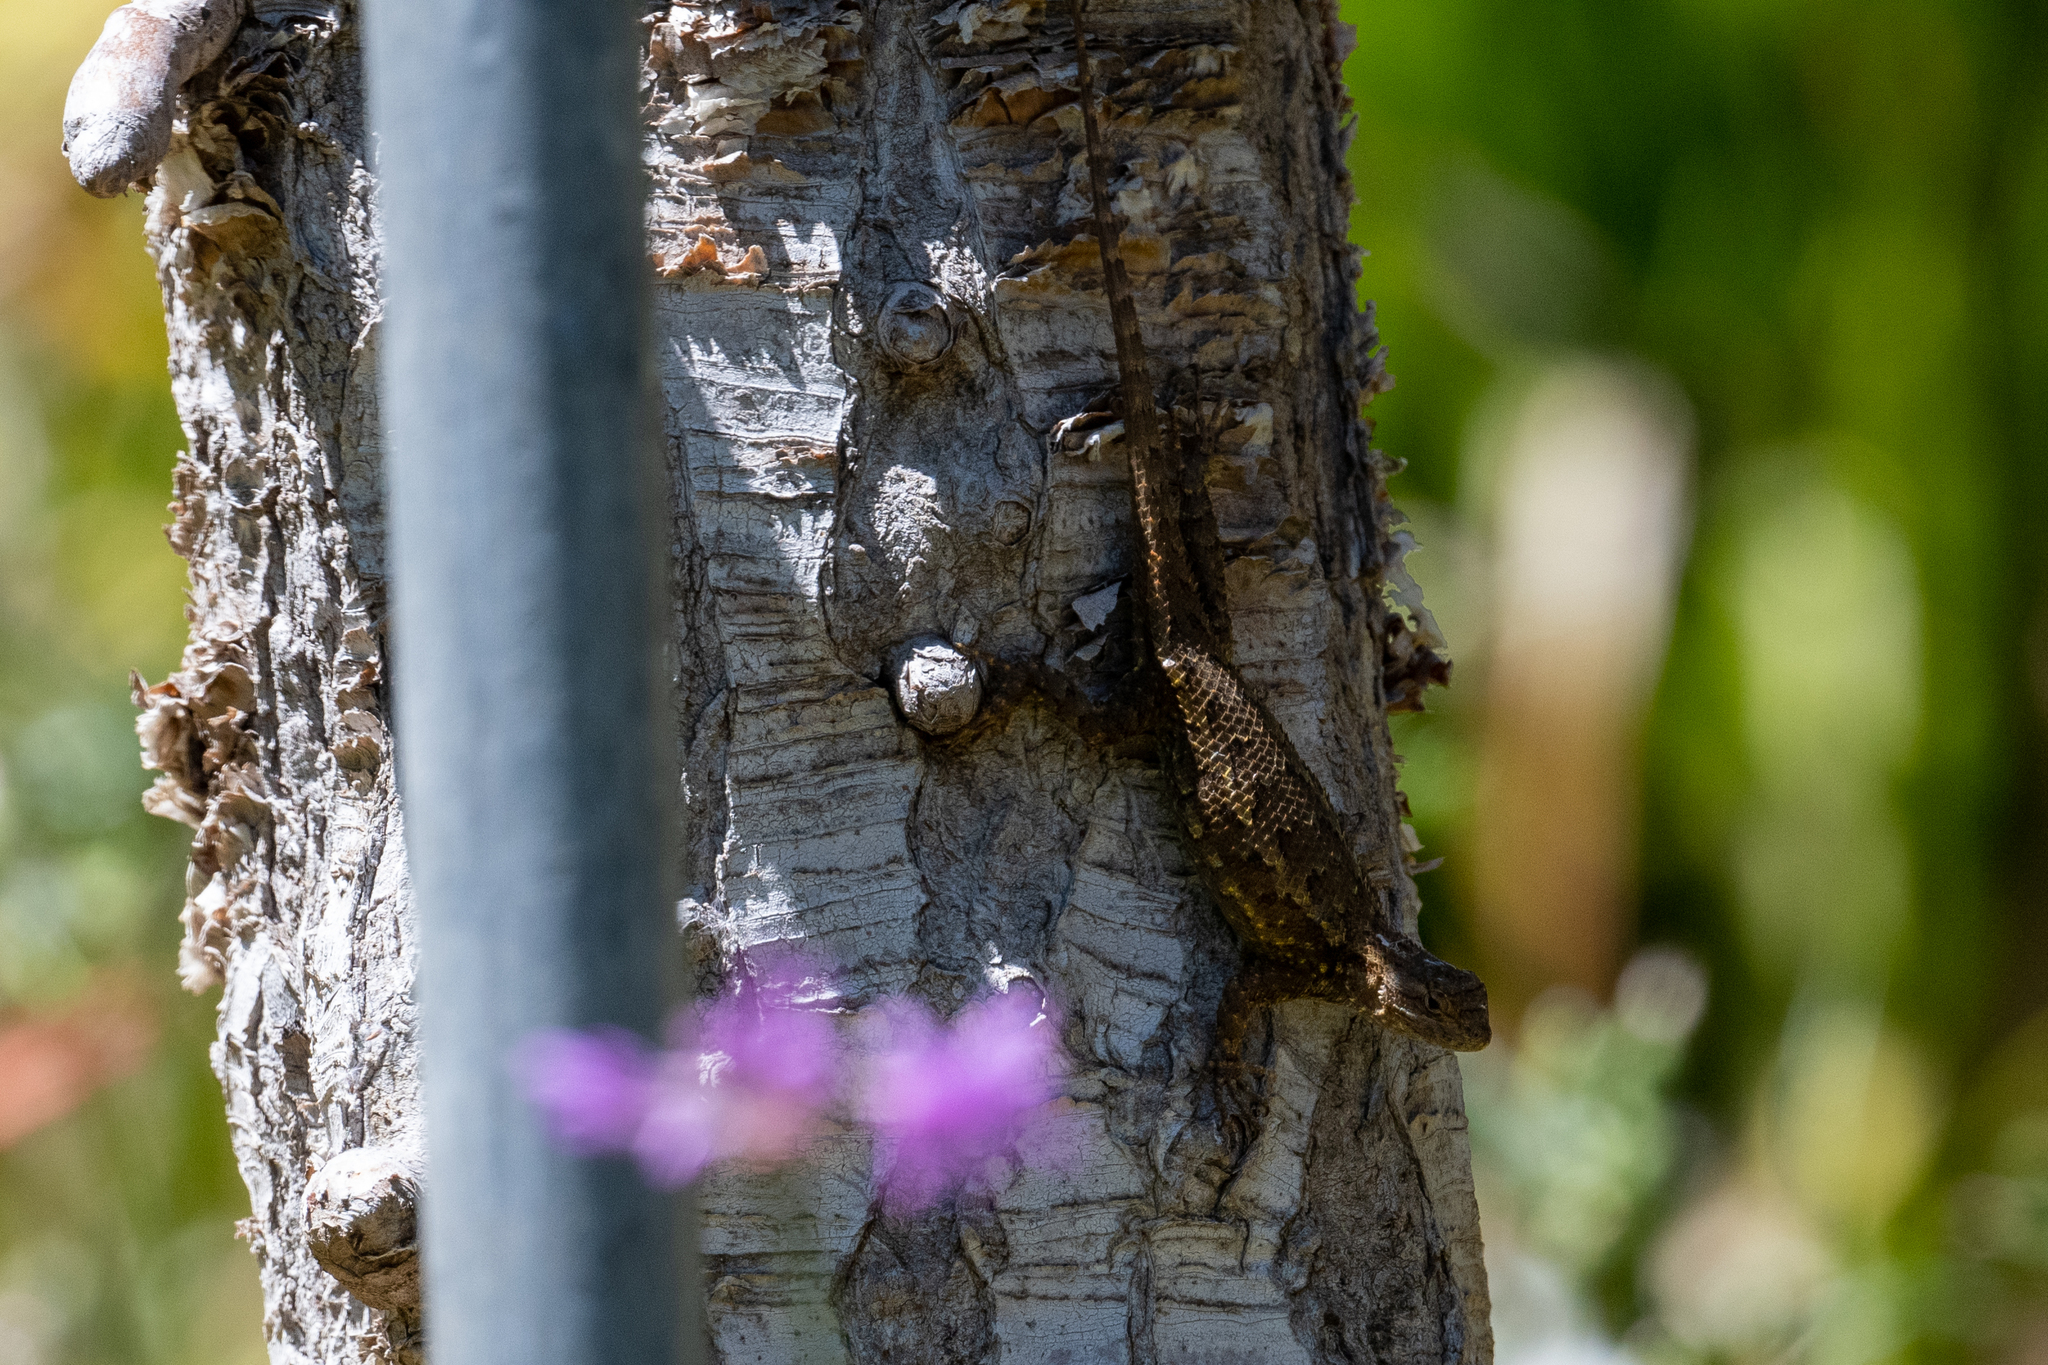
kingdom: Animalia
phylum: Chordata
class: Squamata
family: Phrynosomatidae
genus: Sceloporus
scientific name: Sceloporus occidentalis
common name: Western fence lizard
